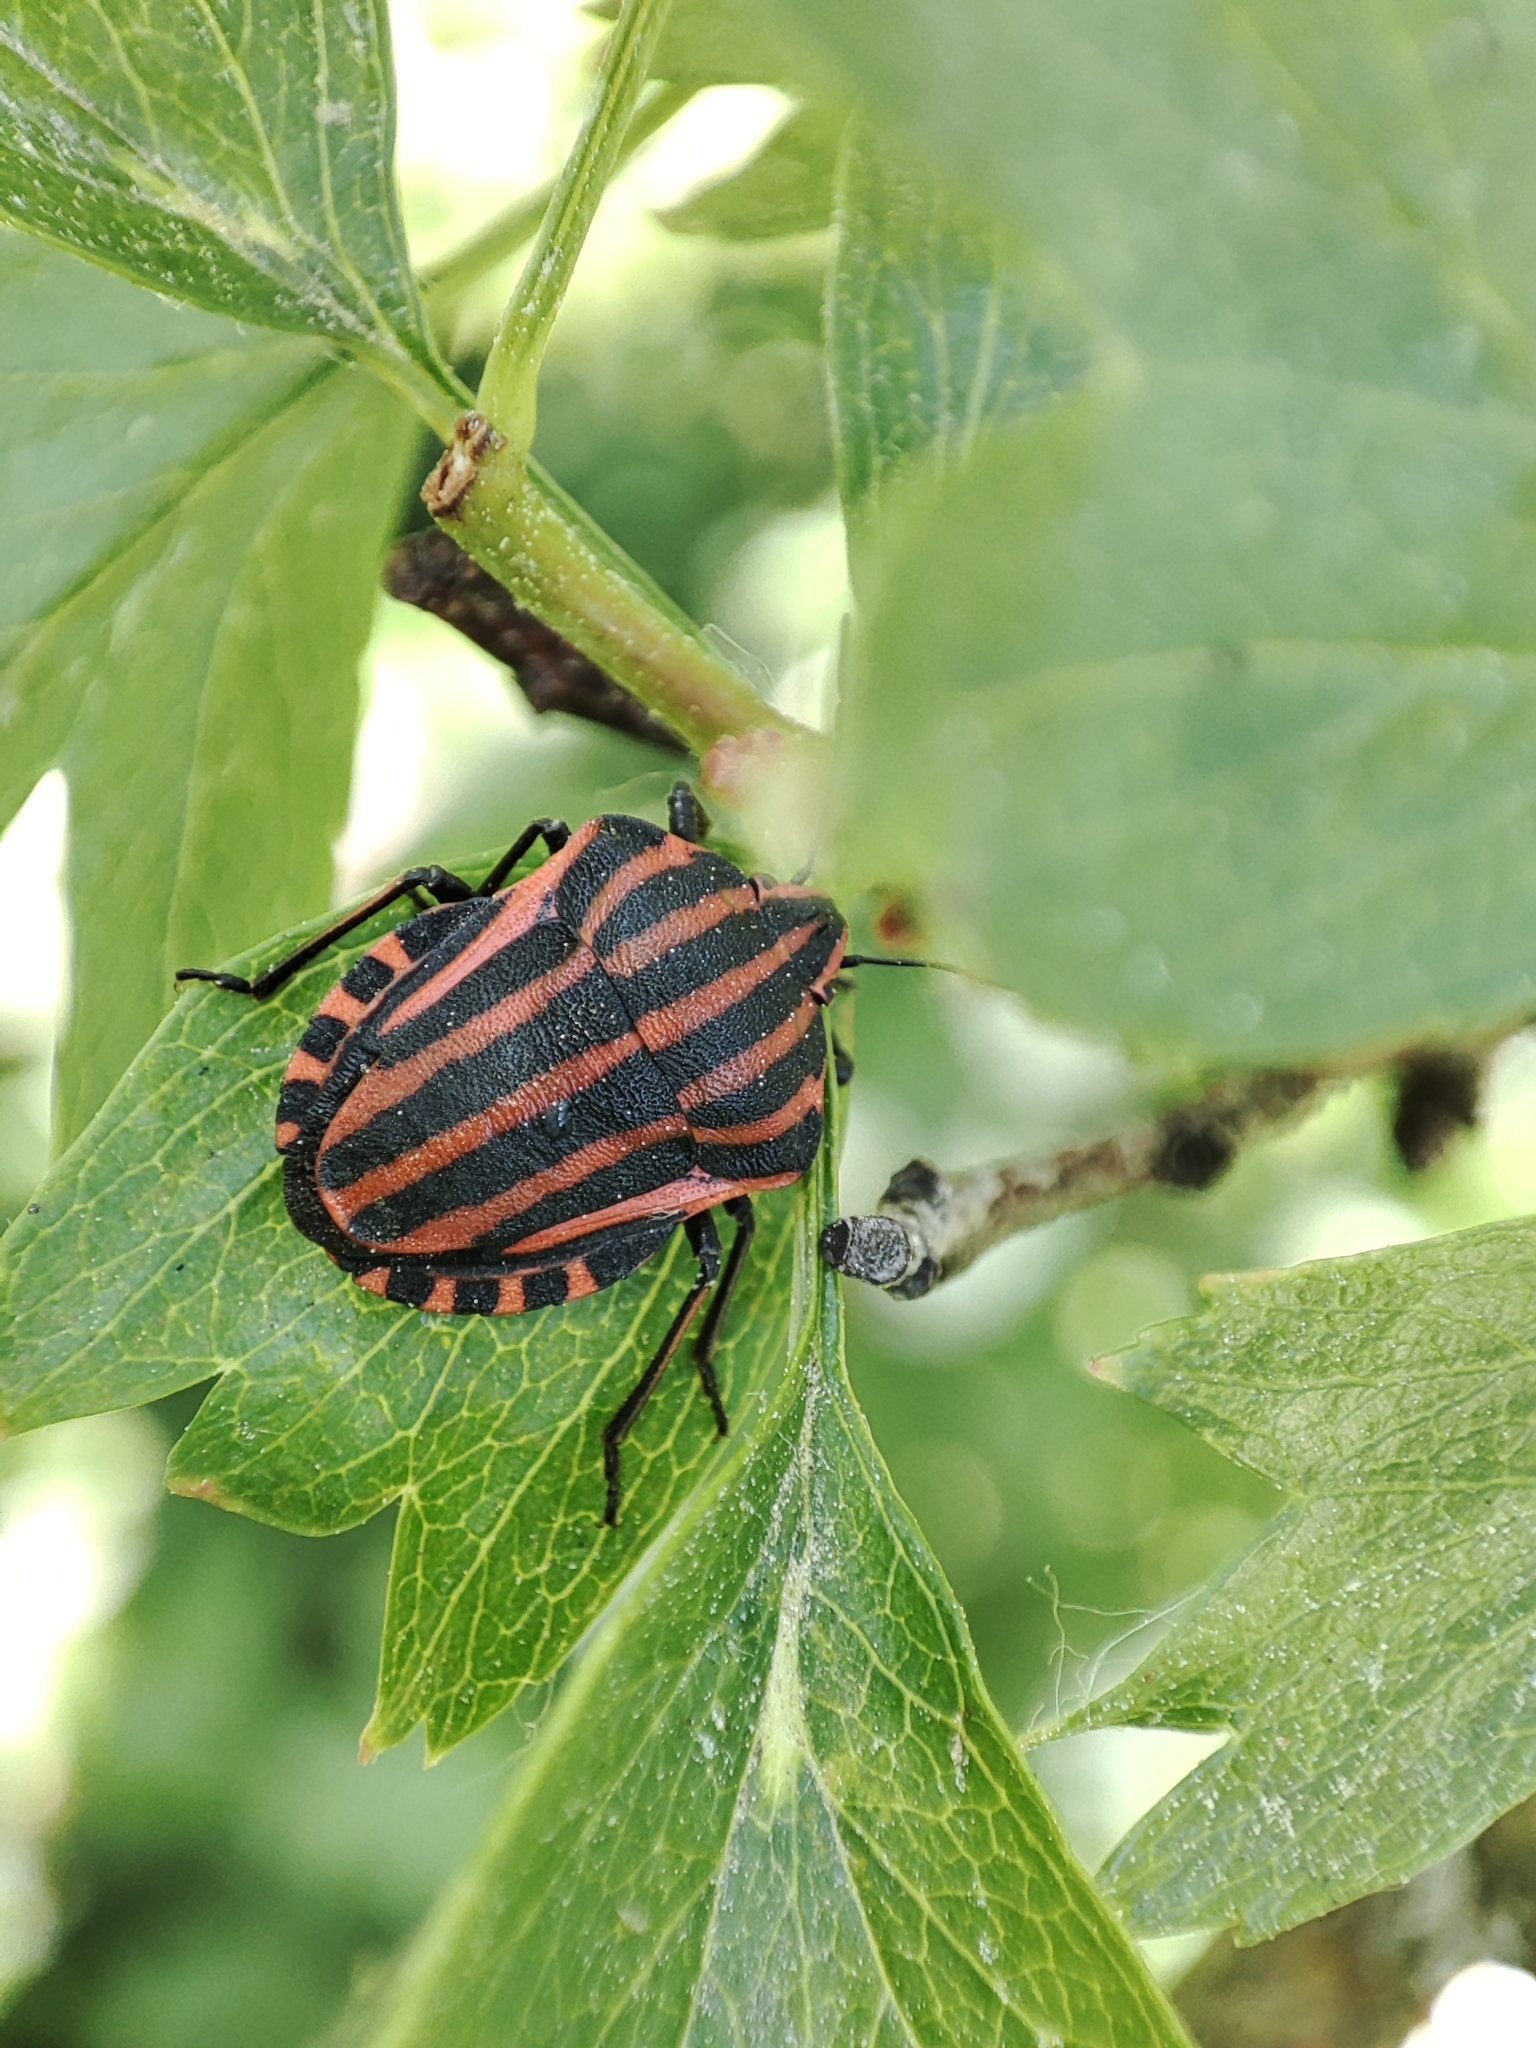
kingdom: Animalia
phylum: Arthropoda
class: Insecta
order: Hemiptera
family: Pentatomidae
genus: Graphosoma
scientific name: Graphosoma italicum
